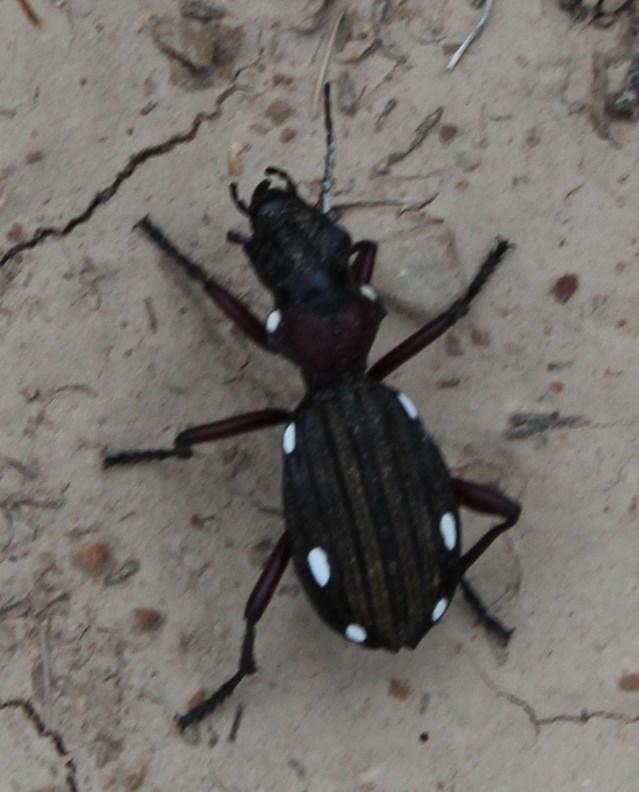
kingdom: Animalia
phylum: Arthropoda
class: Insecta
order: Coleoptera
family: Carabidae
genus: Anthia
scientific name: Anthia decemguttata
